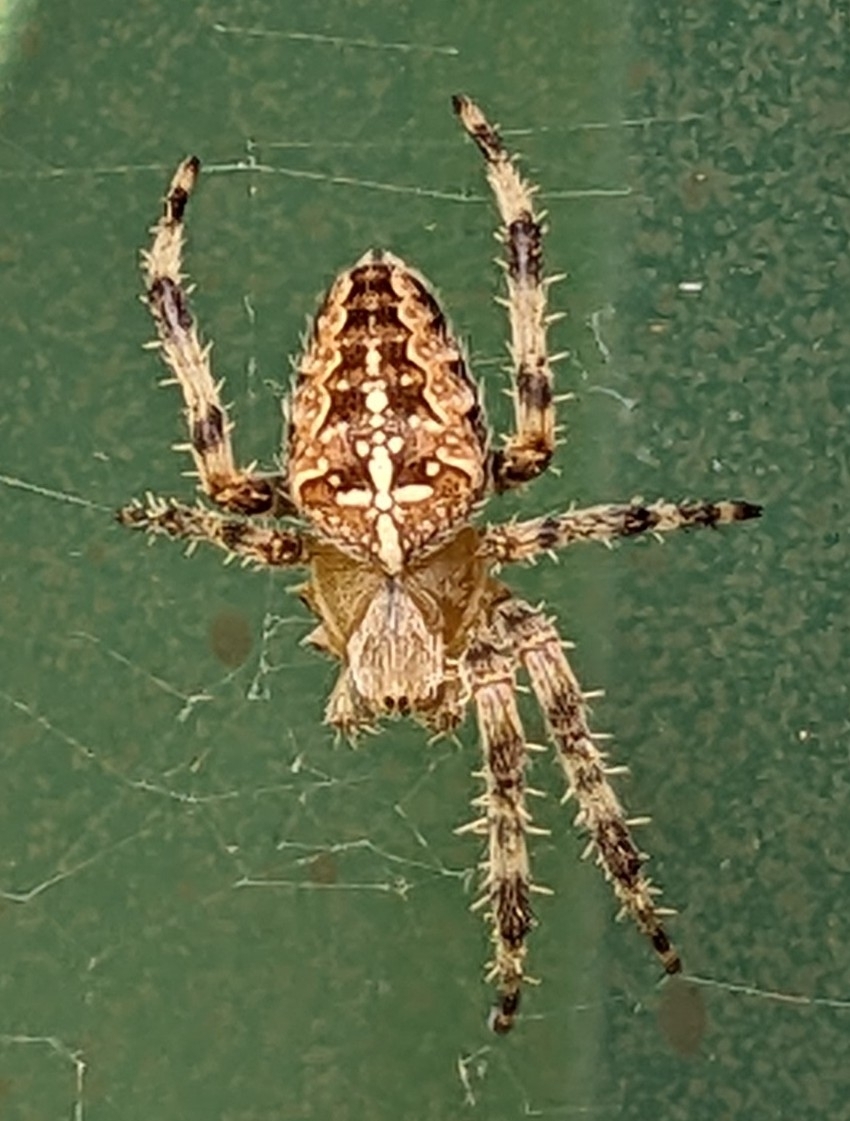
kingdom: Animalia
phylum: Arthropoda
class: Arachnida
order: Araneae
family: Araneidae
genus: Araneus
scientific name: Araneus diadematus
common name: Cross orbweaver
